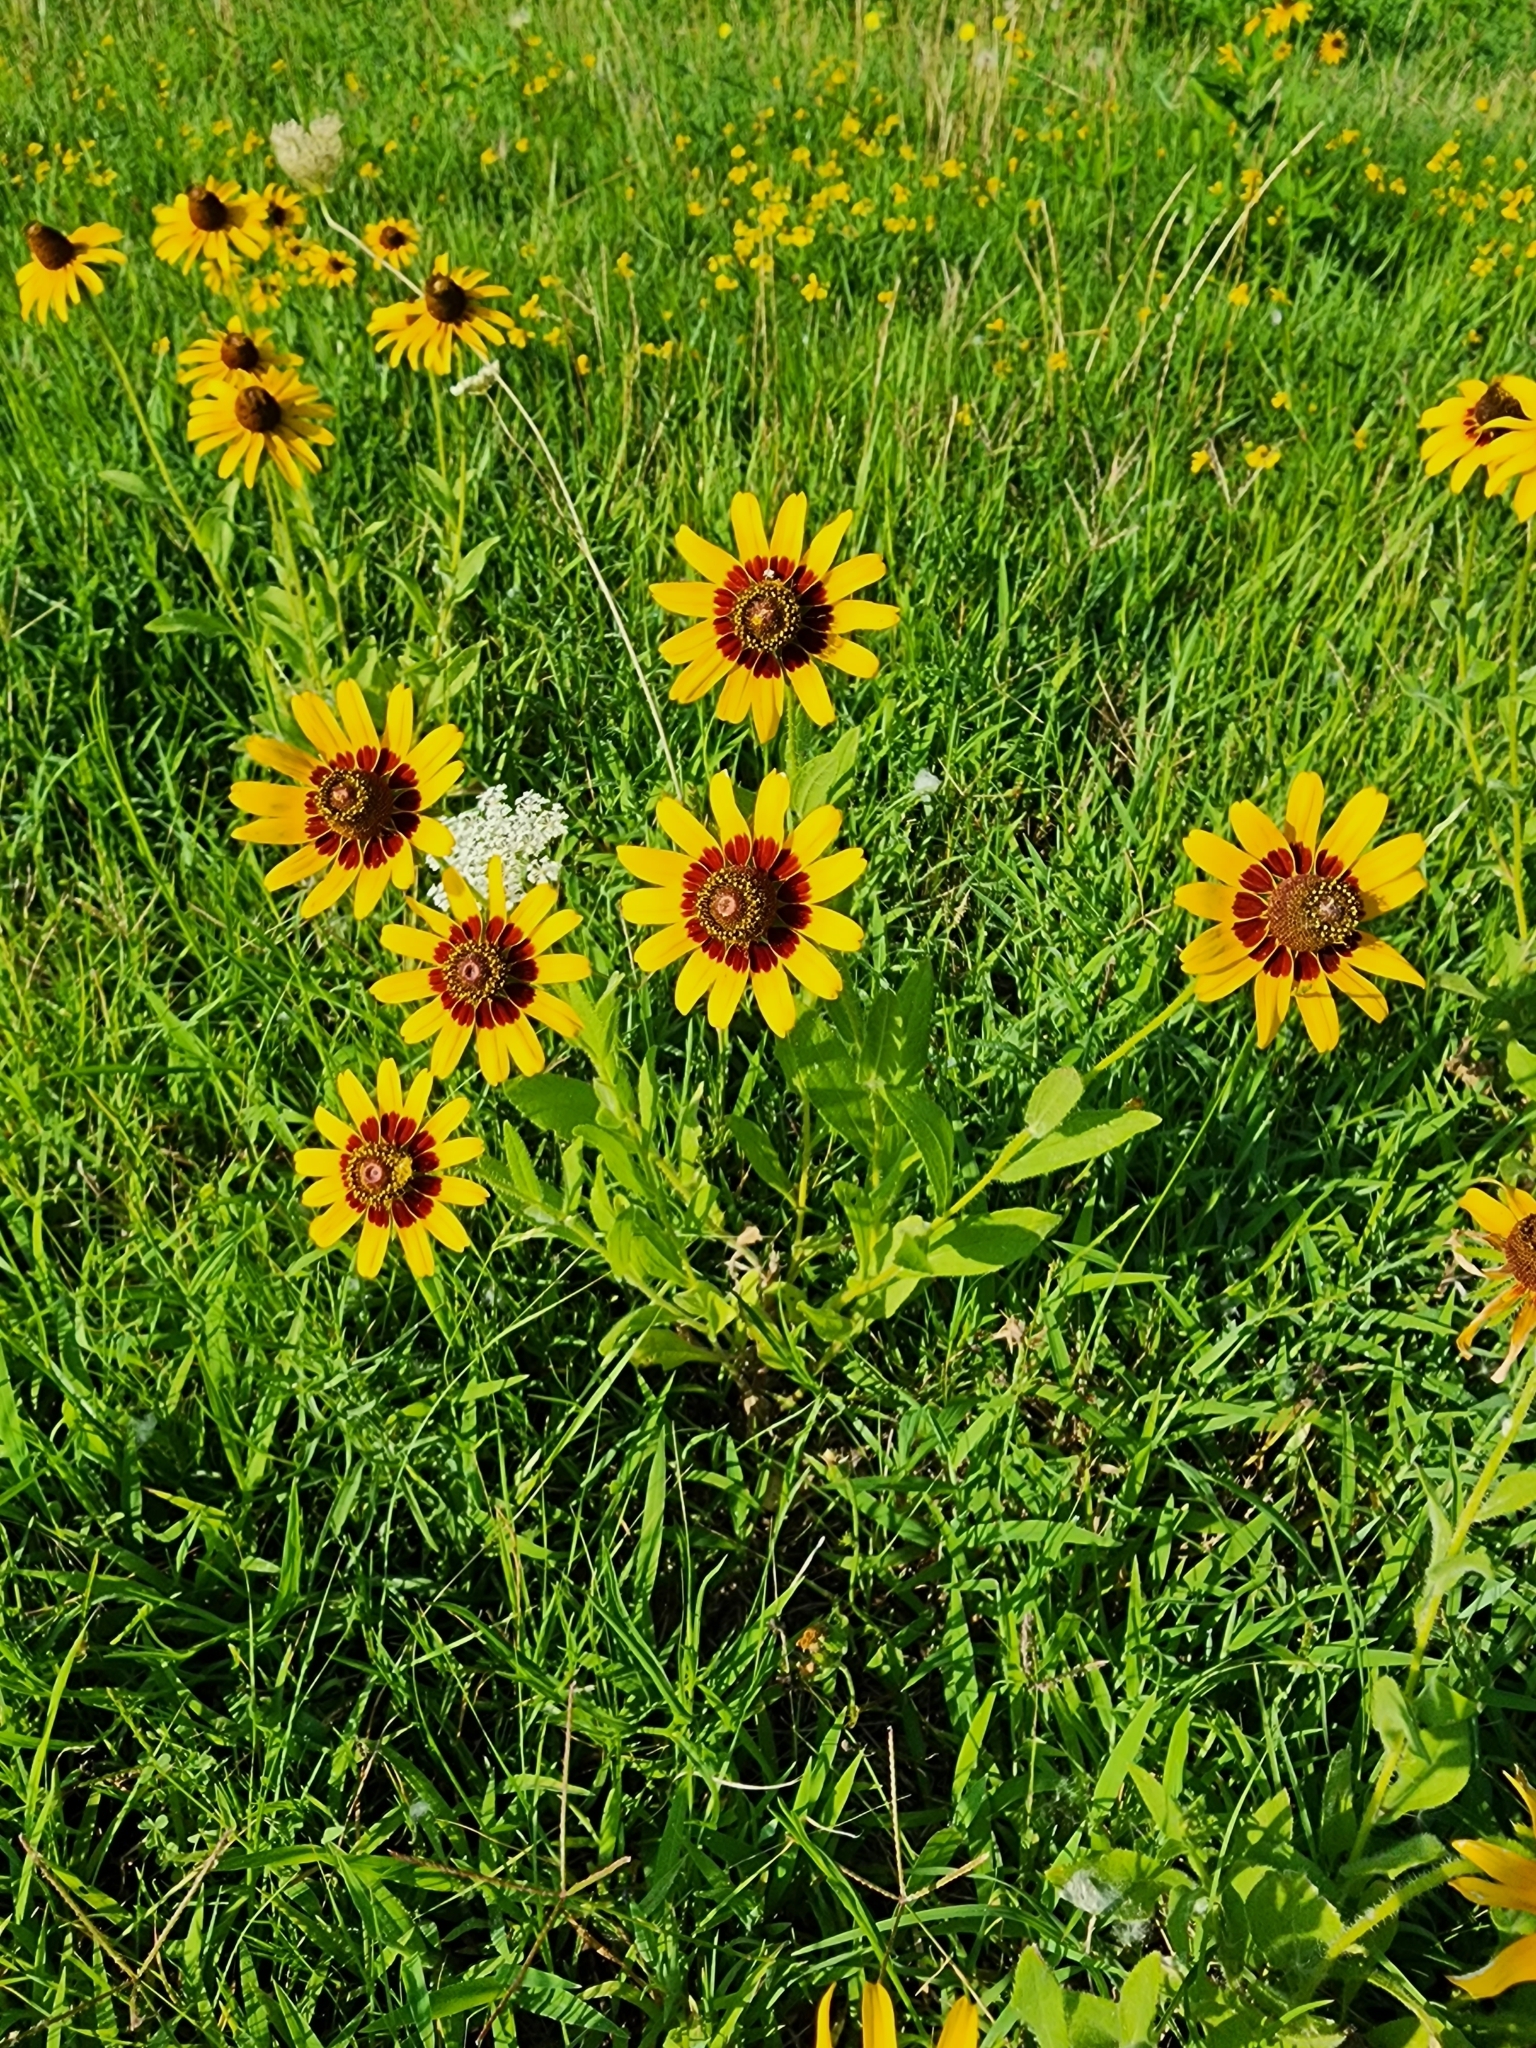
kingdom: Plantae
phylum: Tracheophyta
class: Magnoliopsida
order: Asterales
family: Asteraceae
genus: Rudbeckia
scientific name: Rudbeckia hirta
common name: Black-eyed-susan
